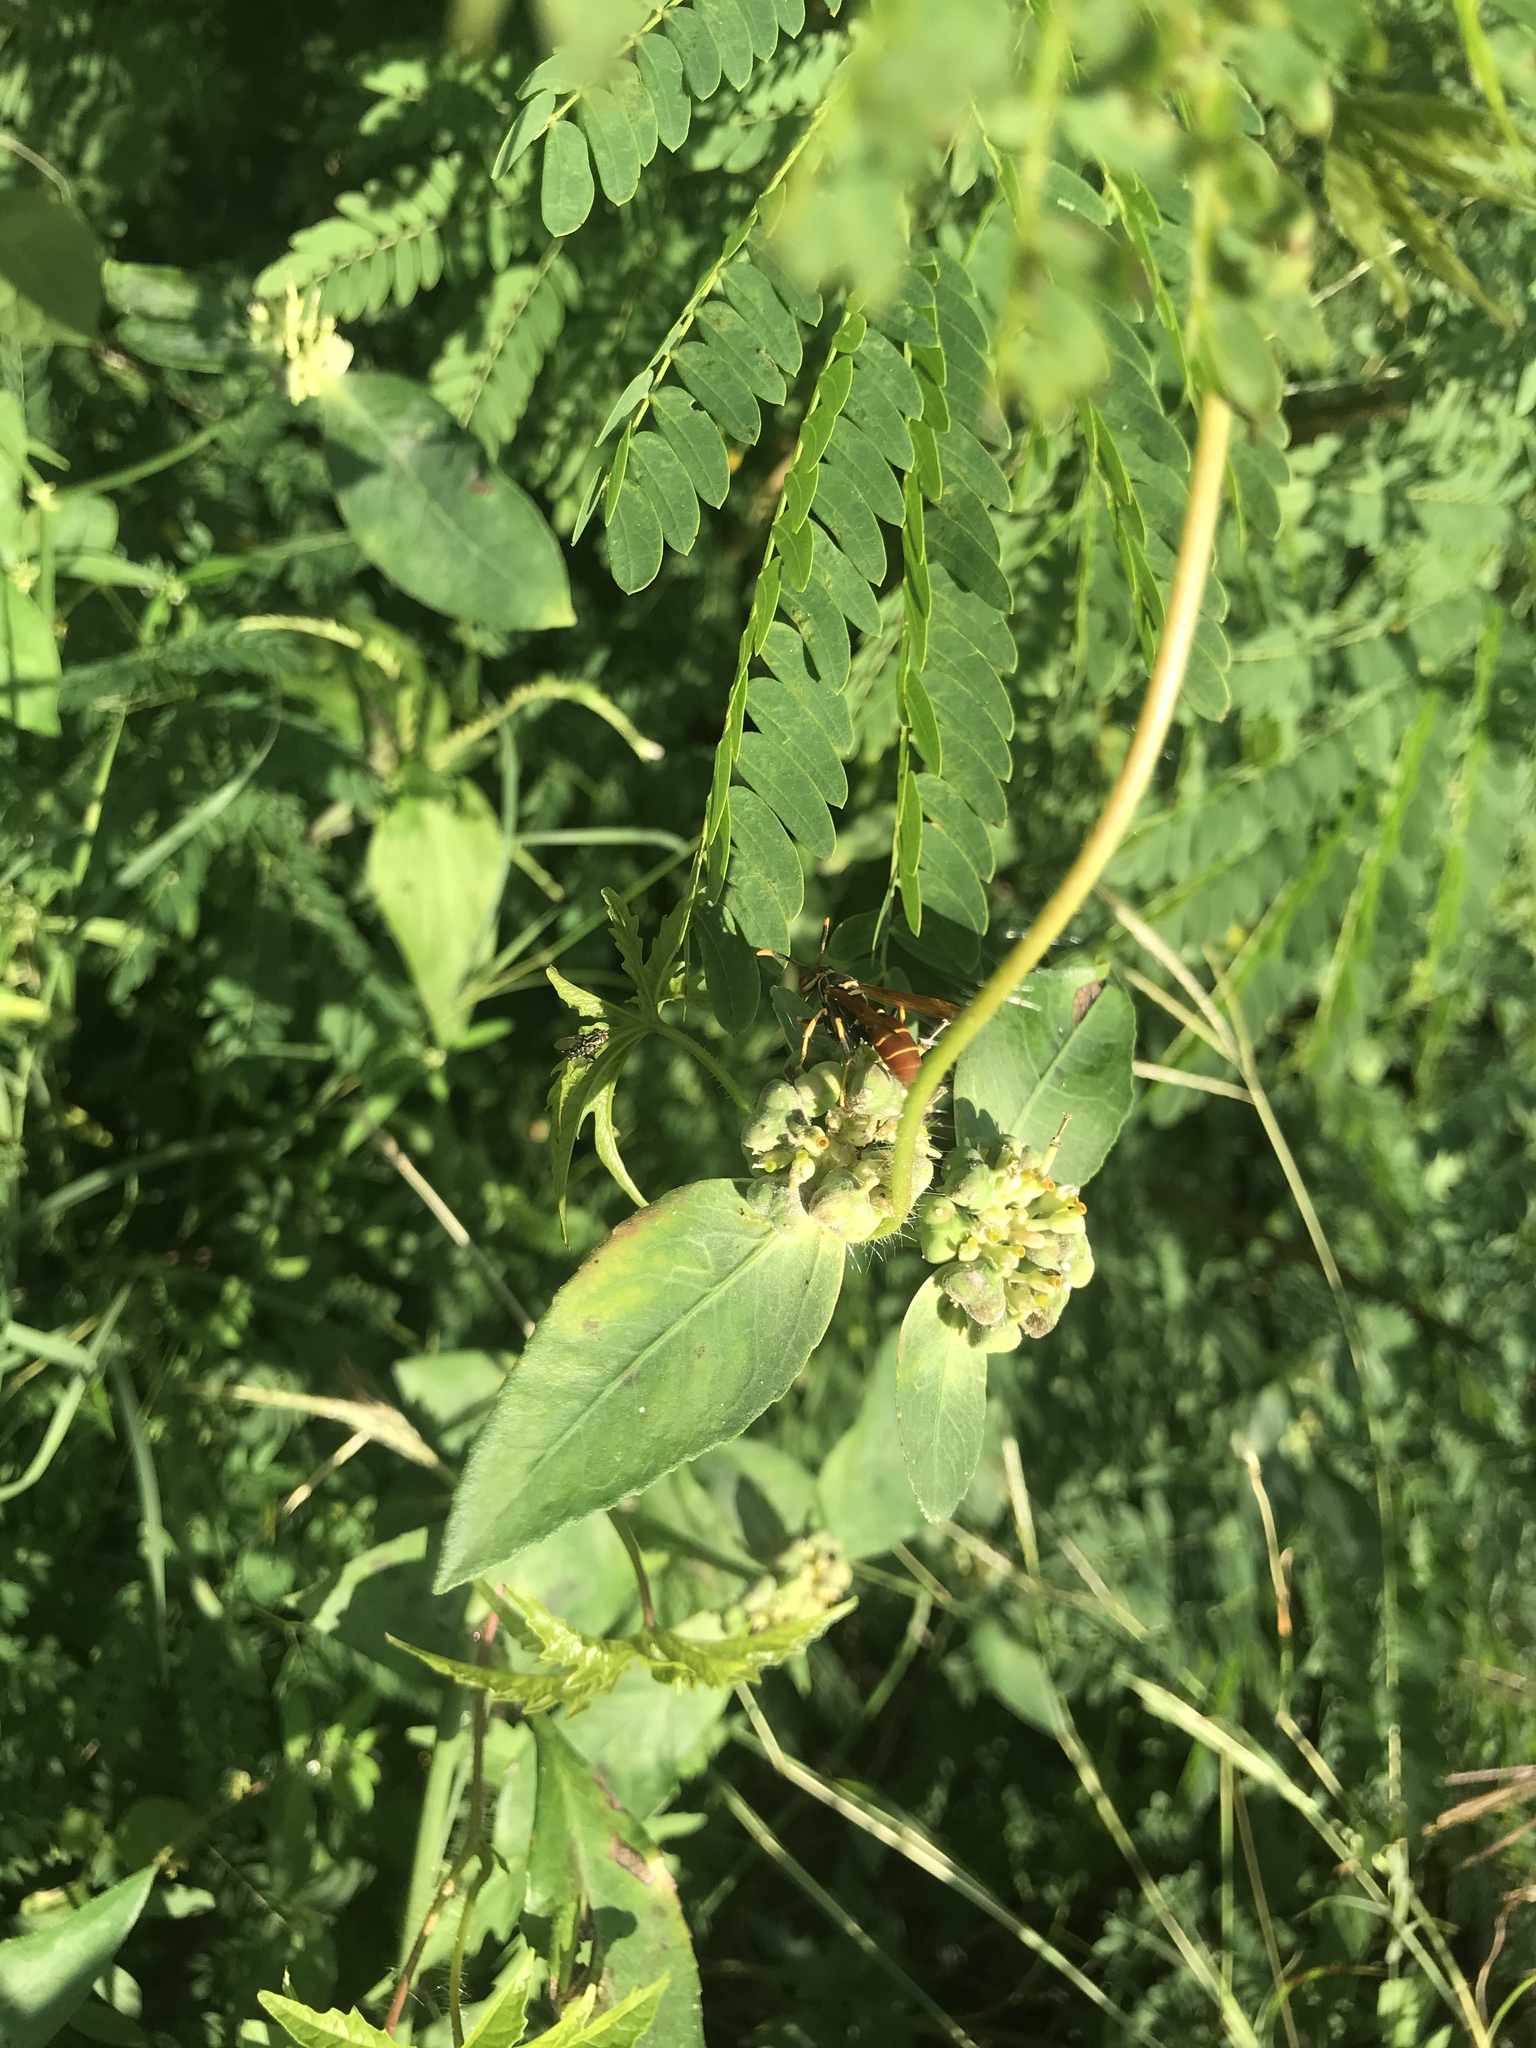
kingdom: Animalia
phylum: Arthropoda
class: Insecta
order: Hymenoptera
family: Eumenidae
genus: Polistes
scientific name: Polistes crinitus
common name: Jack spaniard
